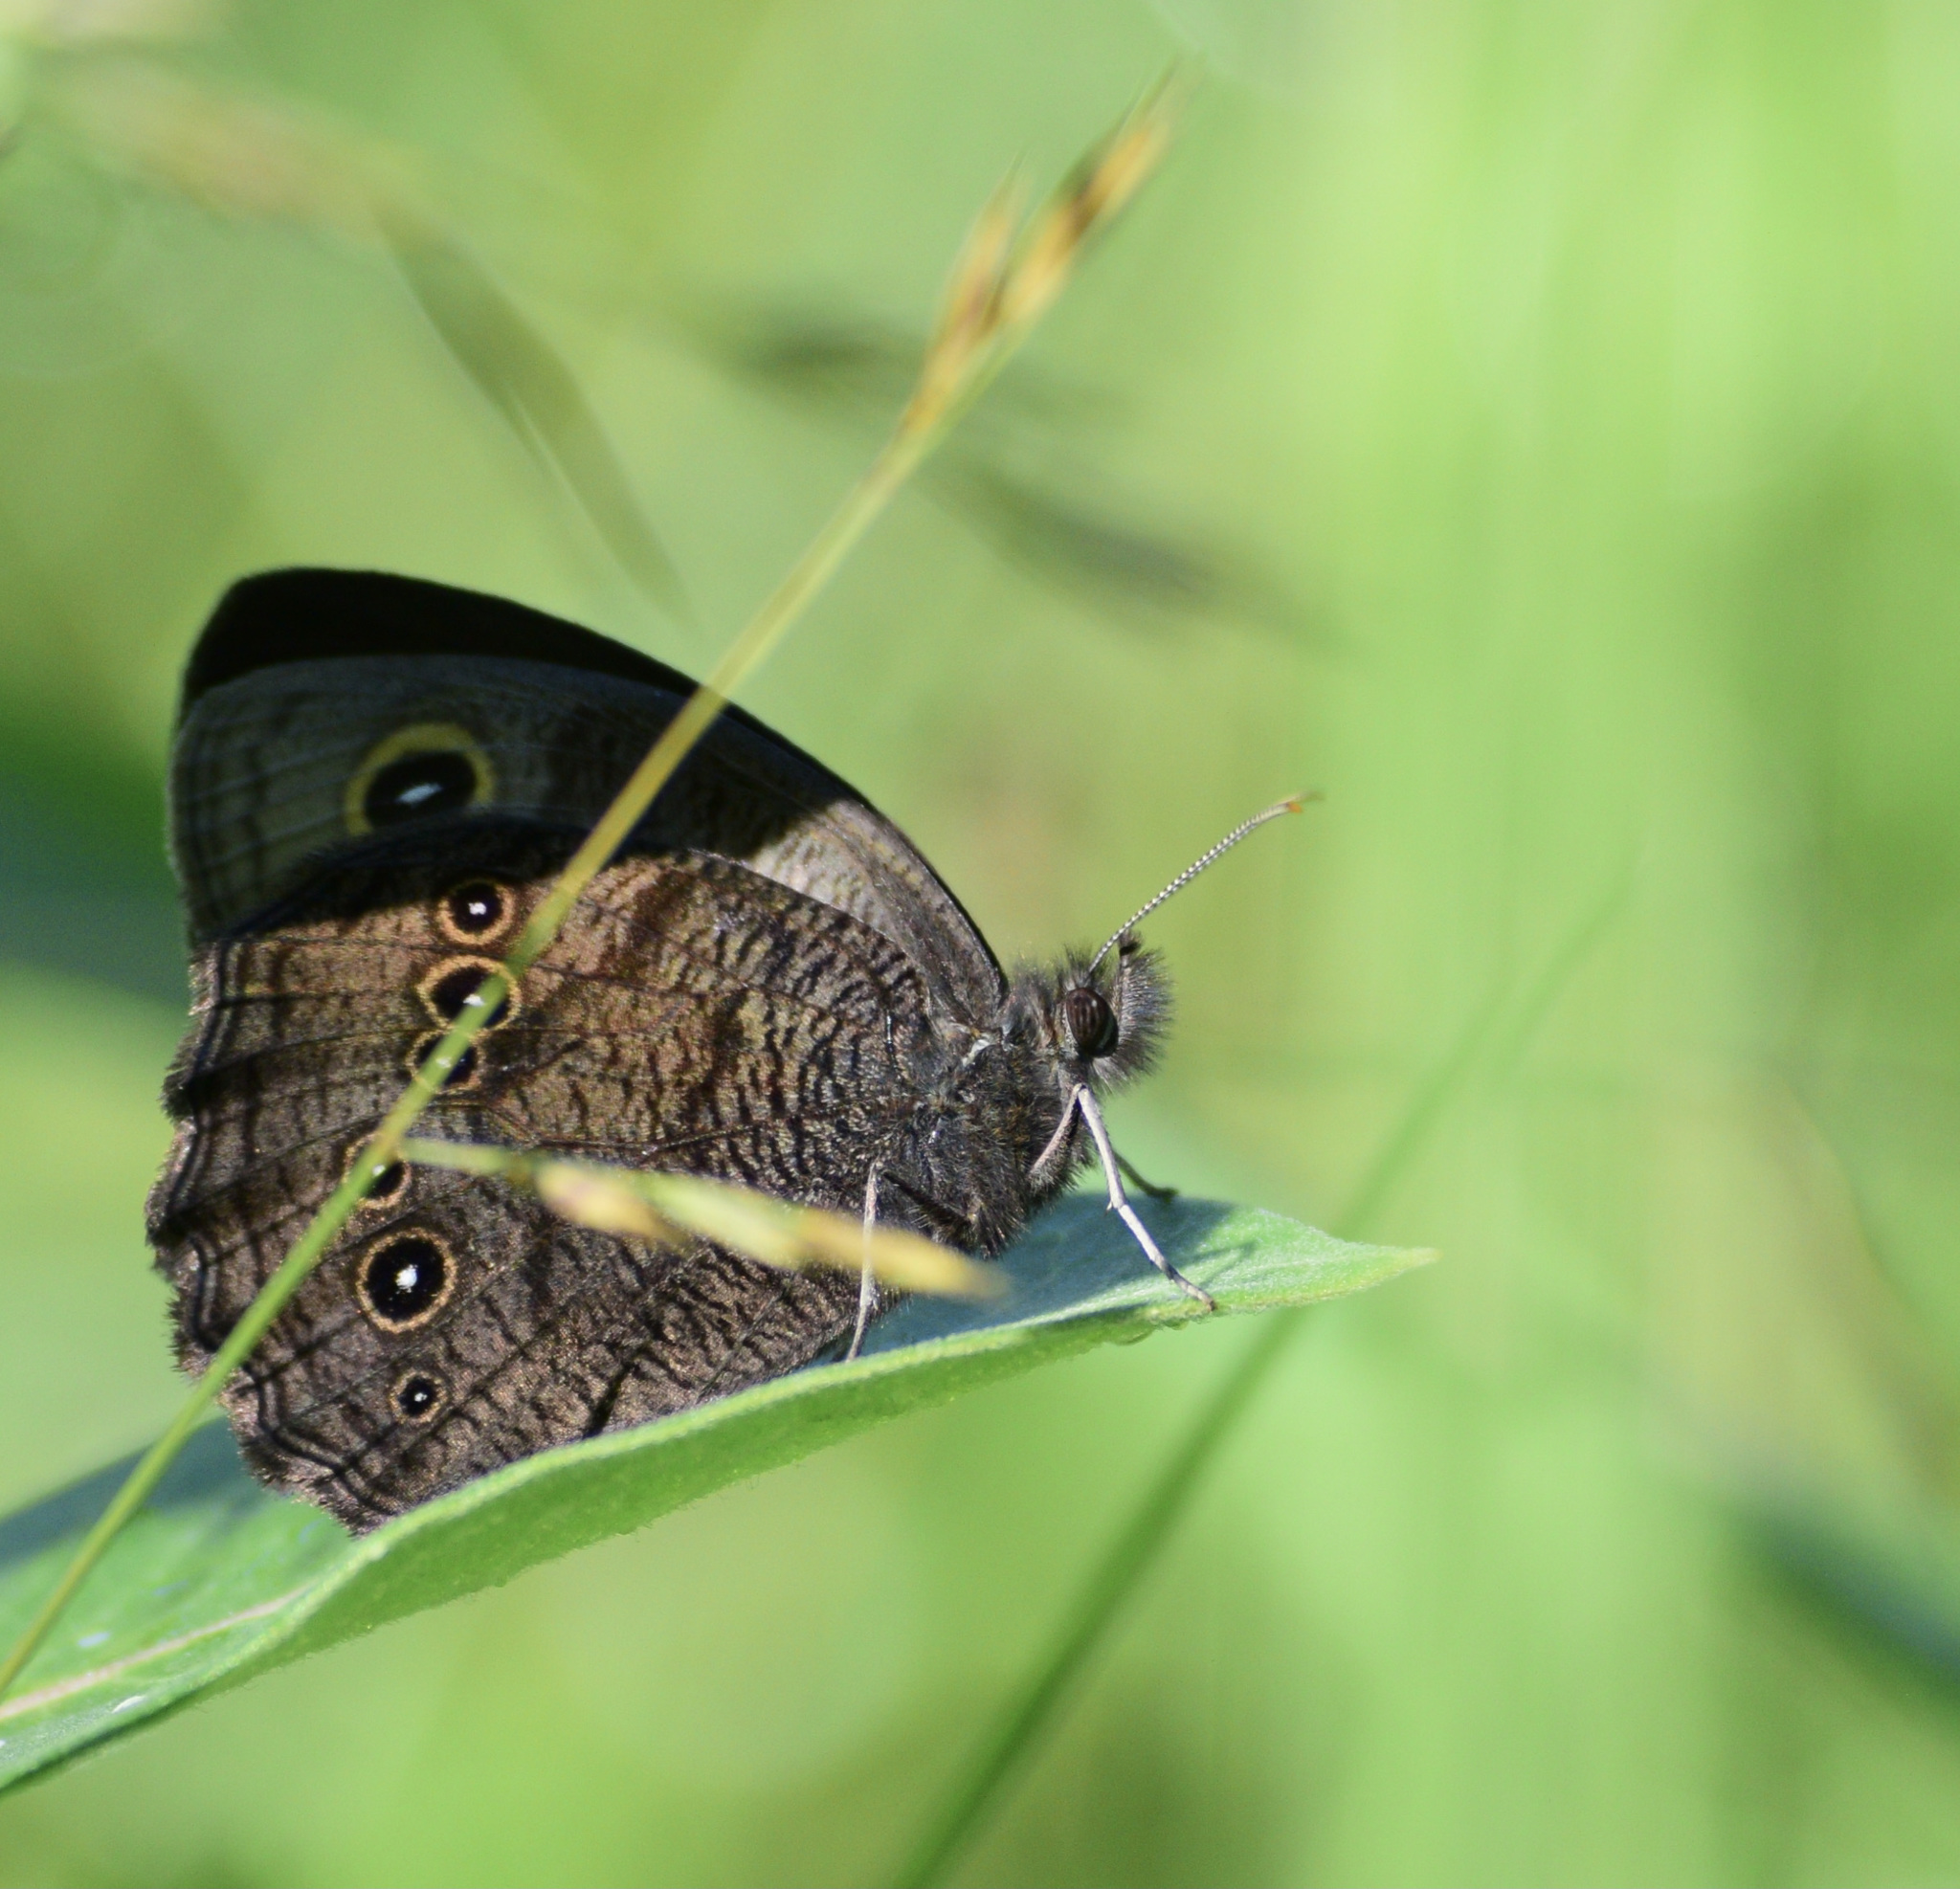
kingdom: Animalia
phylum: Arthropoda
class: Insecta
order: Lepidoptera
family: Nymphalidae
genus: Cercyonis
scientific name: Cercyonis pegala
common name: Common wood-nymph
